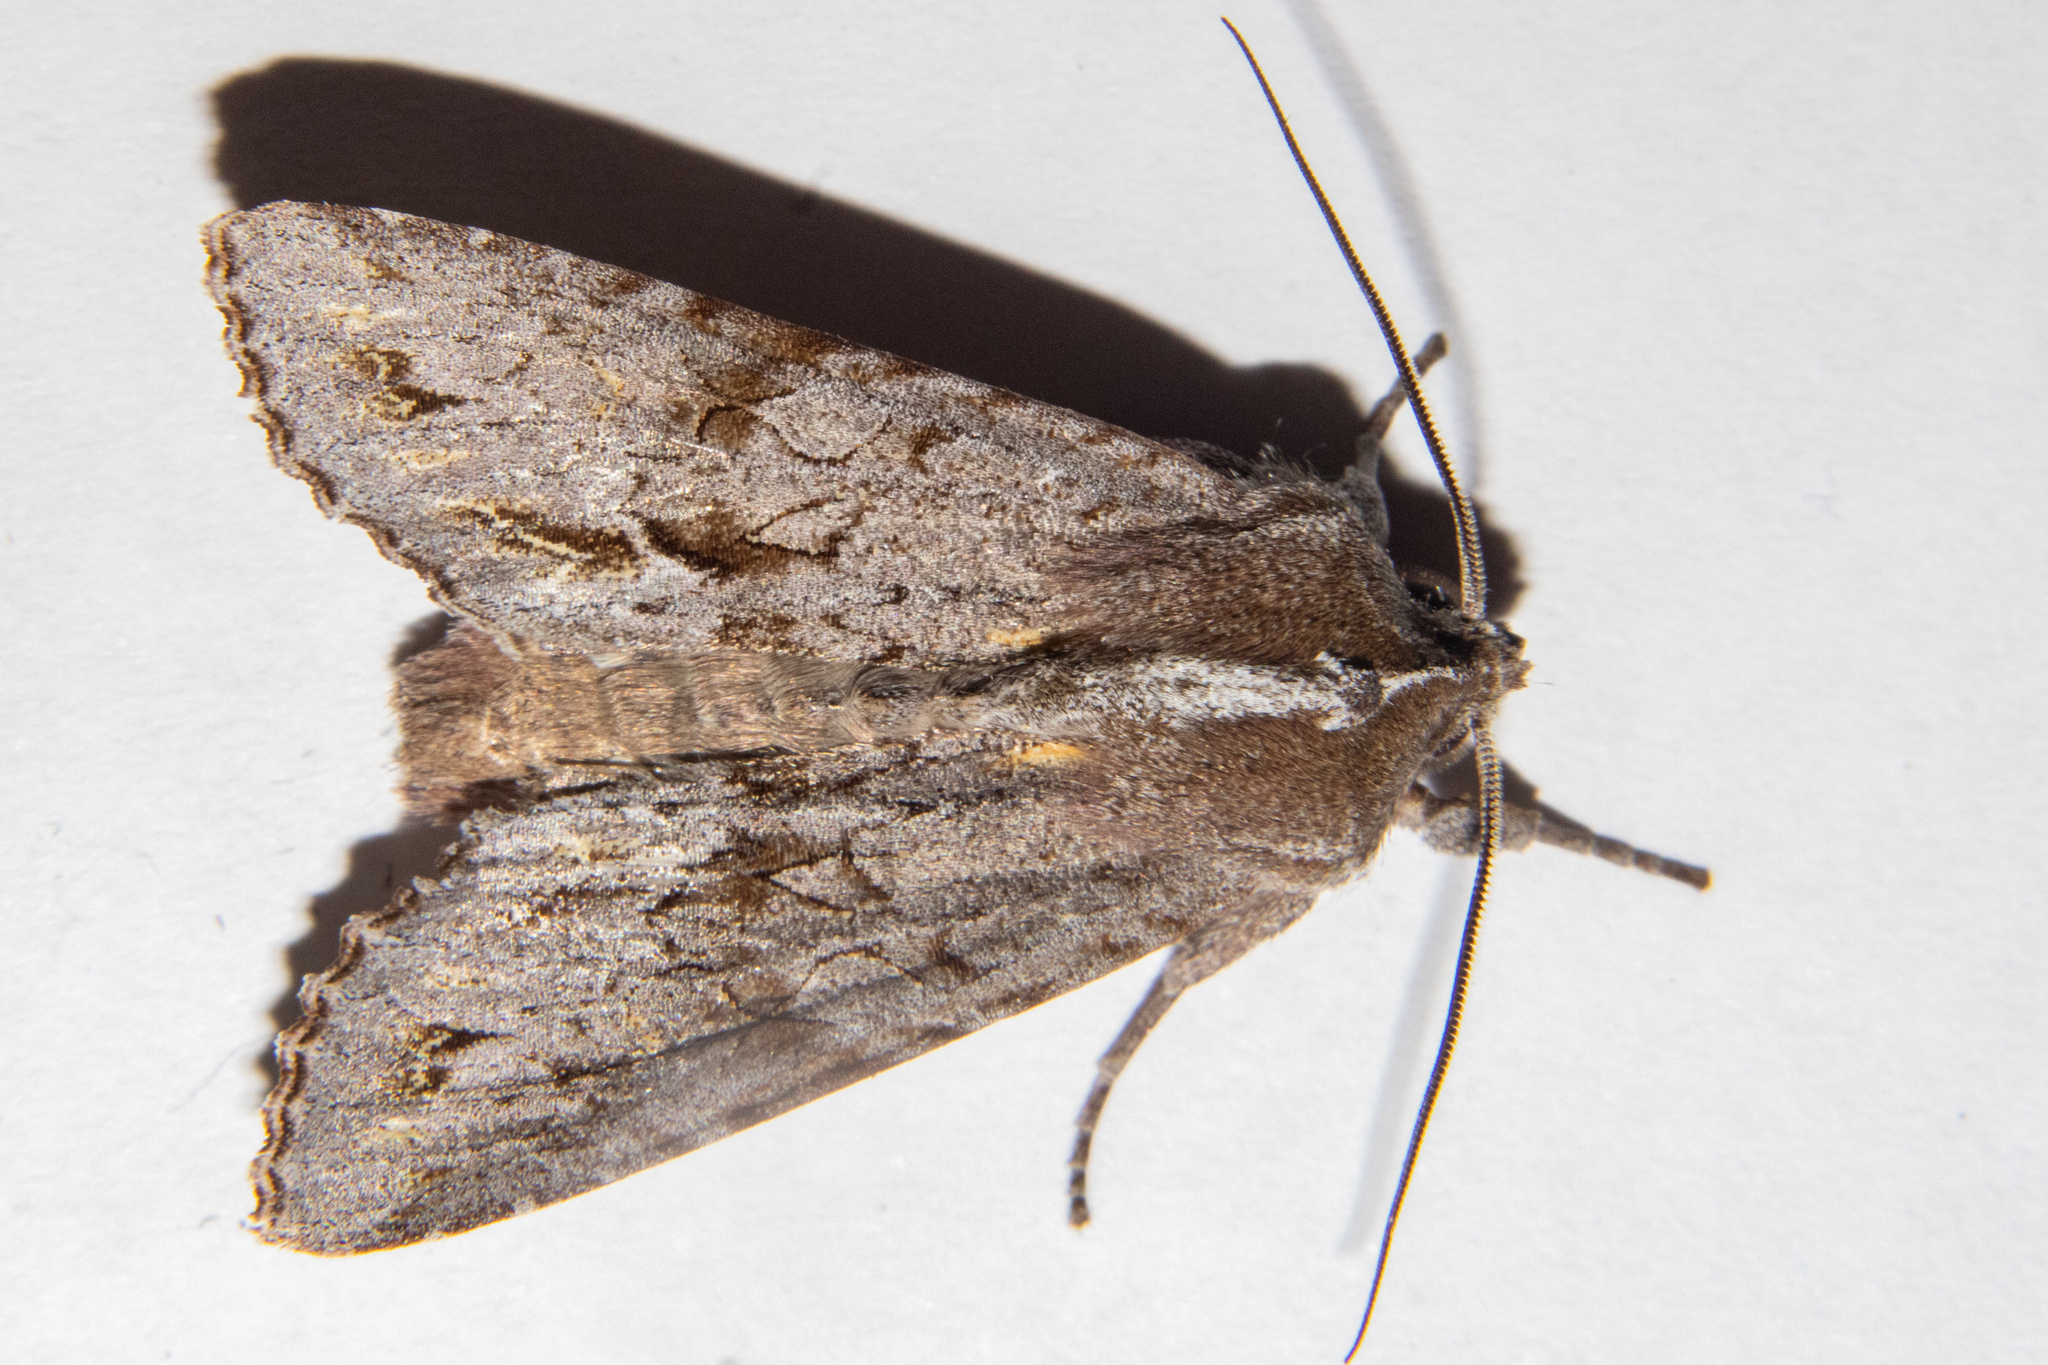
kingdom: Animalia
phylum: Arthropoda
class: Insecta
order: Lepidoptera
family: Noctuidae
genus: Ichneutica
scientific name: Ichneutica
